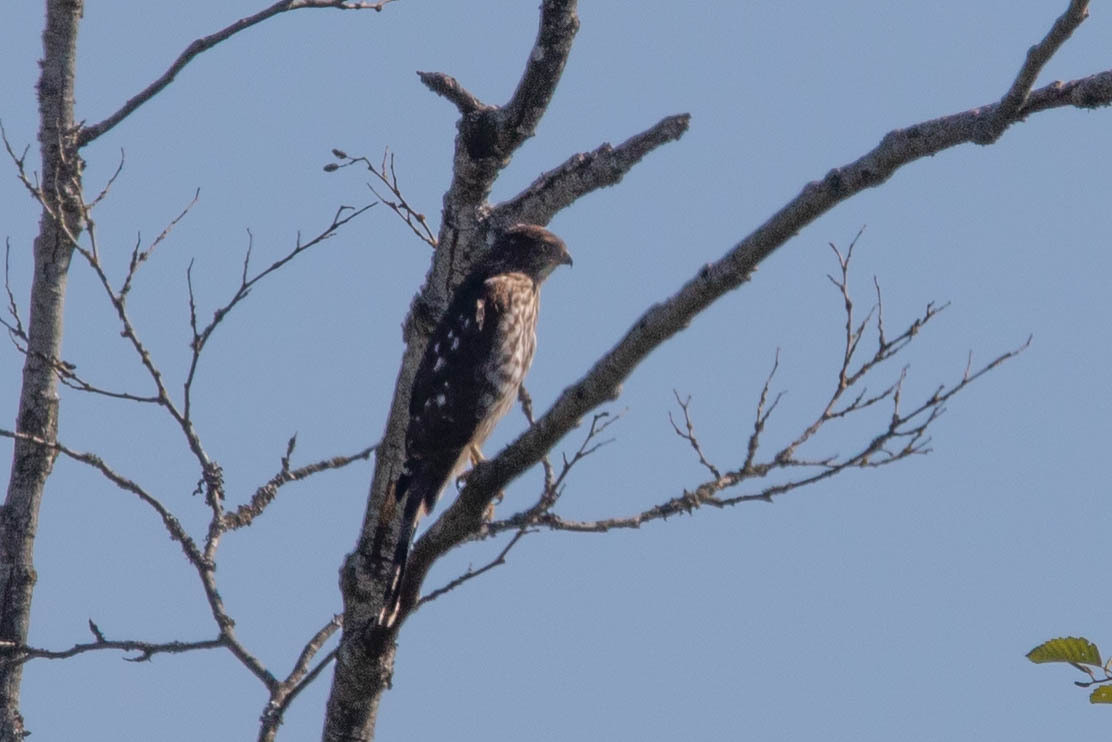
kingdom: Animalia
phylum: Chordata
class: Aves
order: Accipitriformes
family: Accipitridae
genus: Accipiter
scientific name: Accipiter cooperii
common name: Cooper's hawk
